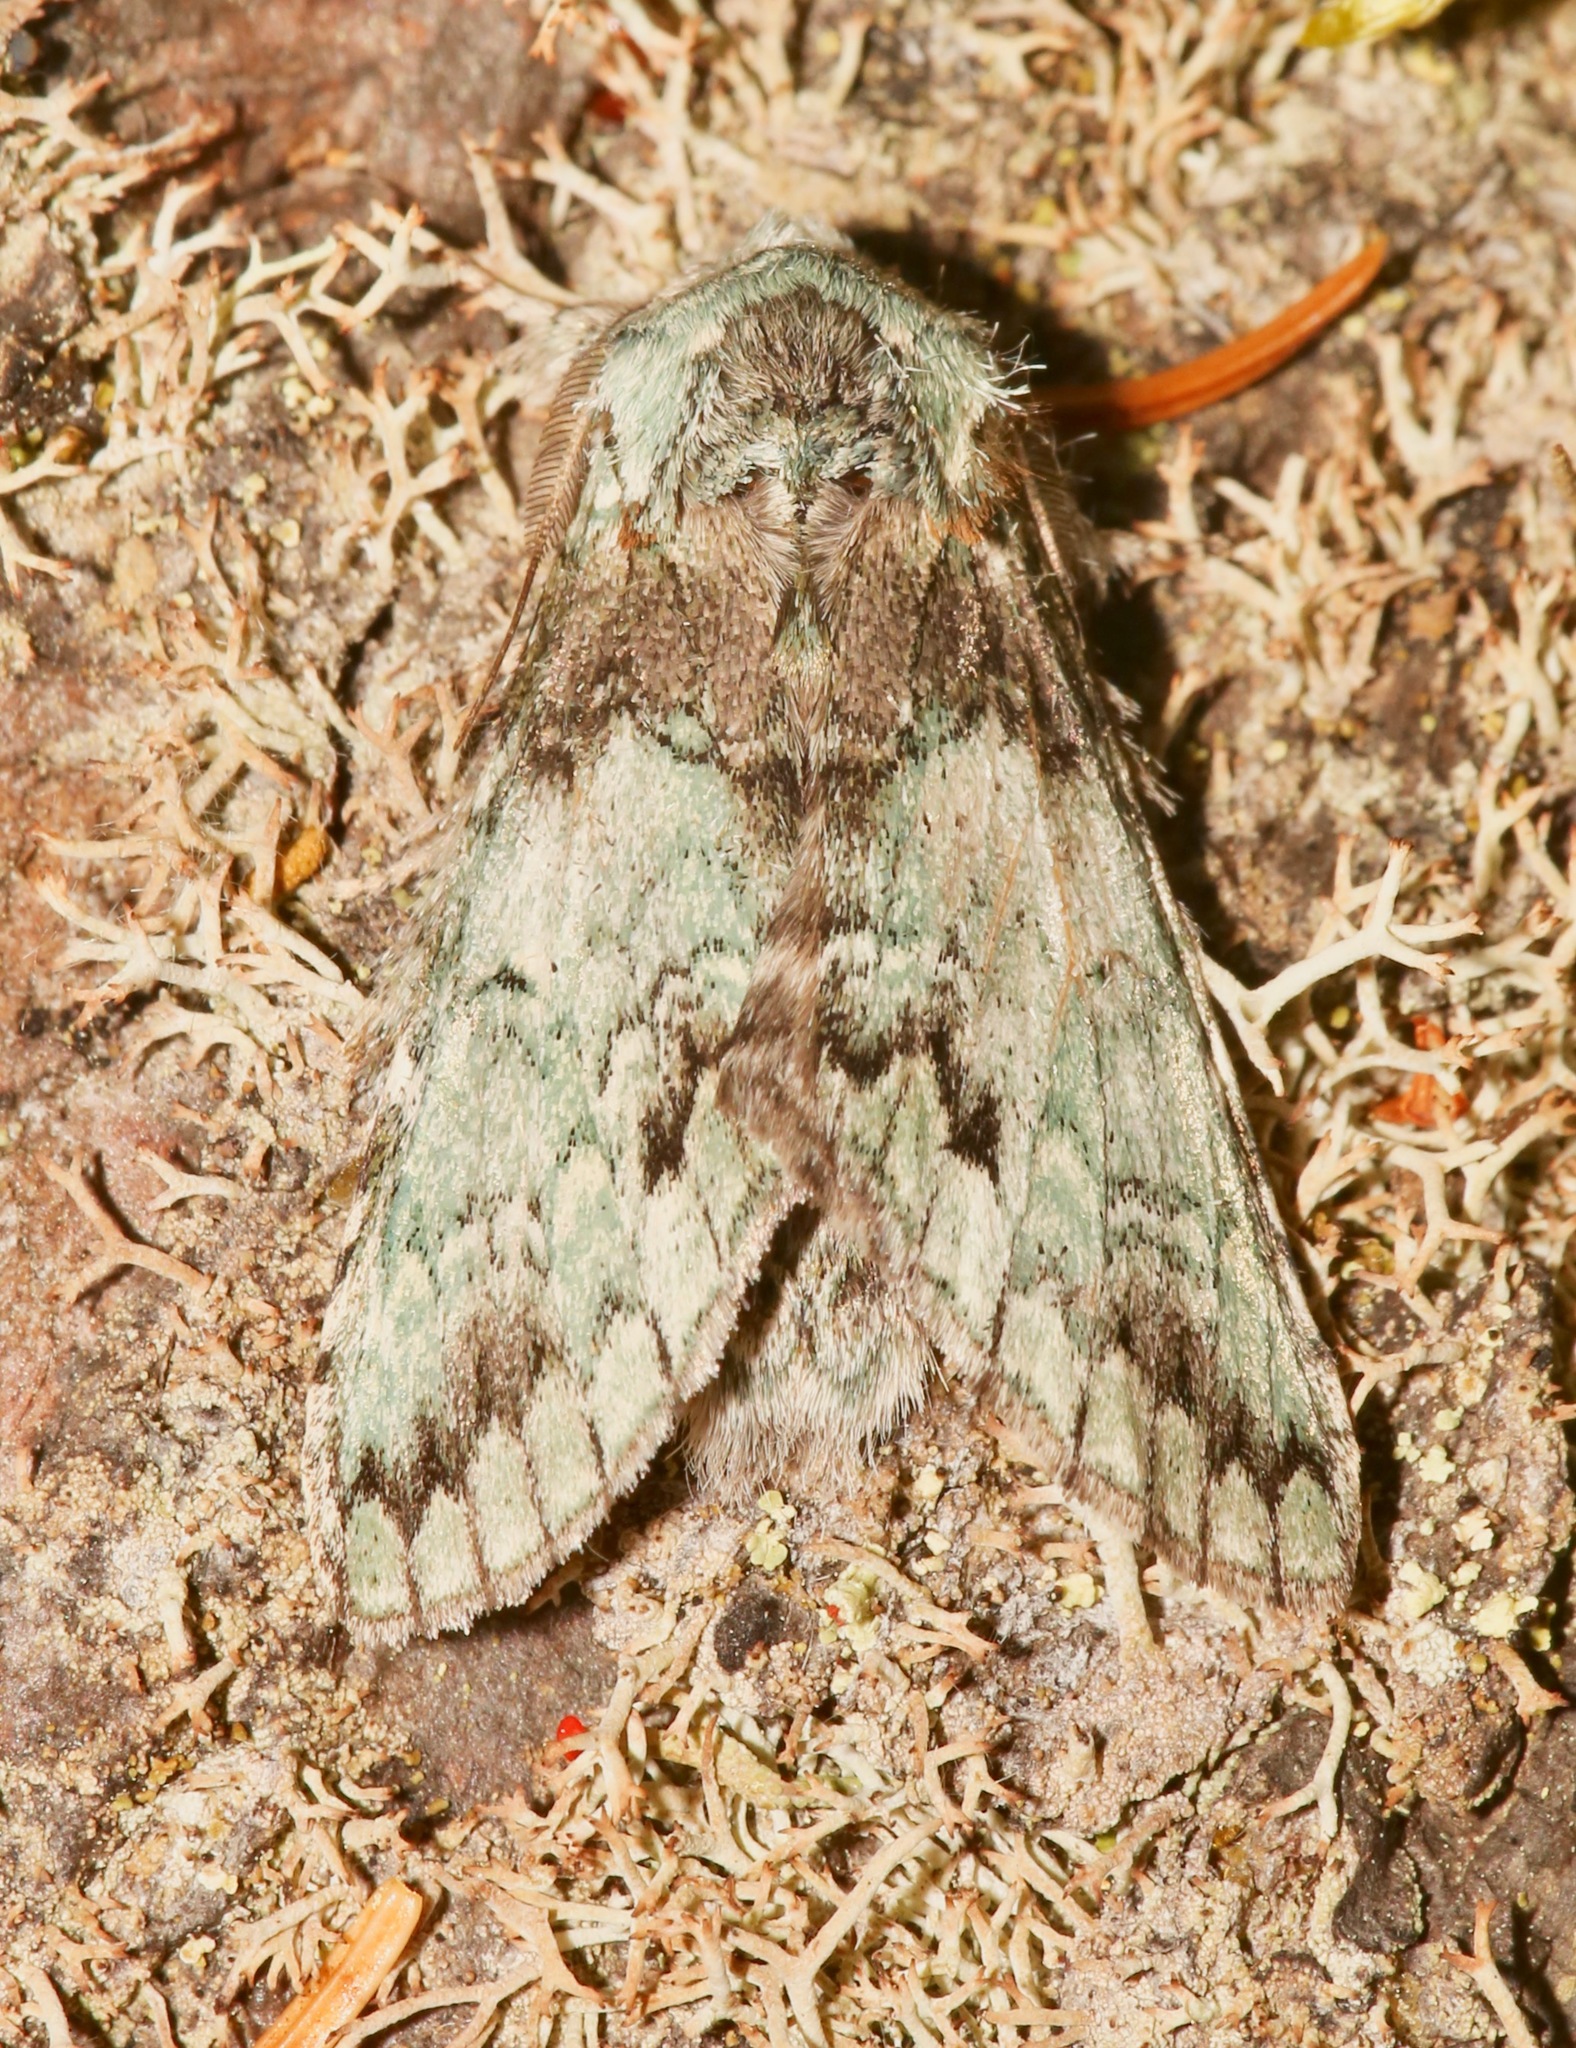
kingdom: Animalia
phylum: Arthropoda
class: Insecta
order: Lepidoptera
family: Notodontidae
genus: Macrurocampa
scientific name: Macrurocampa marthesia
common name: Mottled prominent
